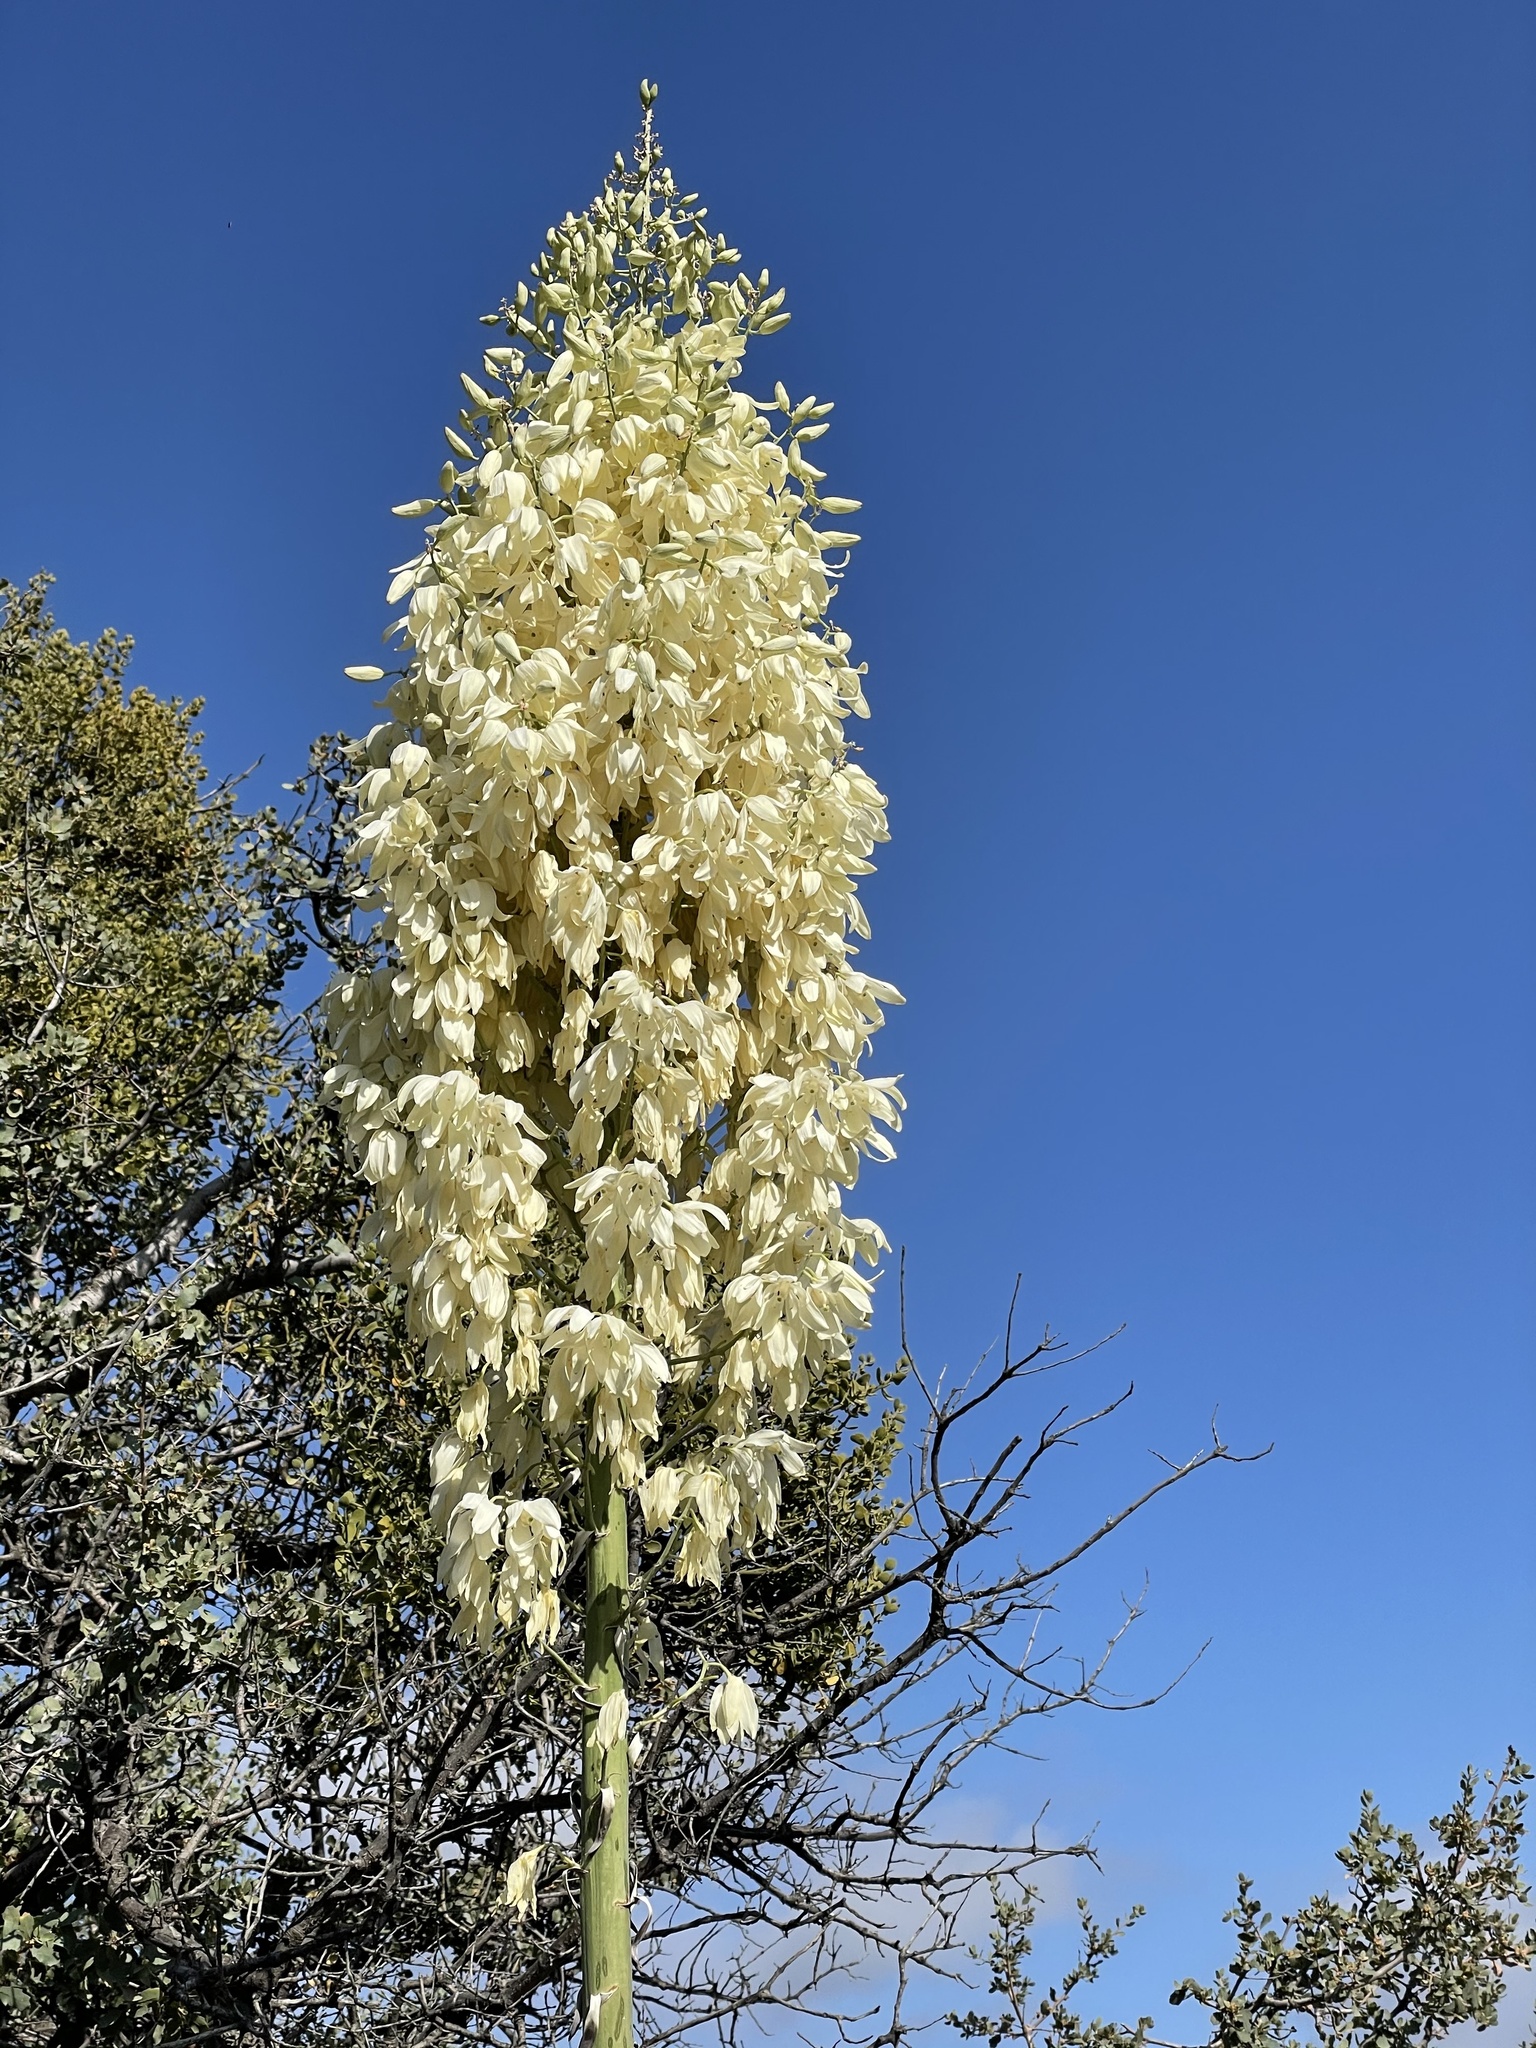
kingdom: Plantae
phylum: Tracheophyta
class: Liliopsida
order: Asparagales
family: Asparagaceae
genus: Hesperoyucca
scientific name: Hesperoyucca whipplei
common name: Our lord's-candle
